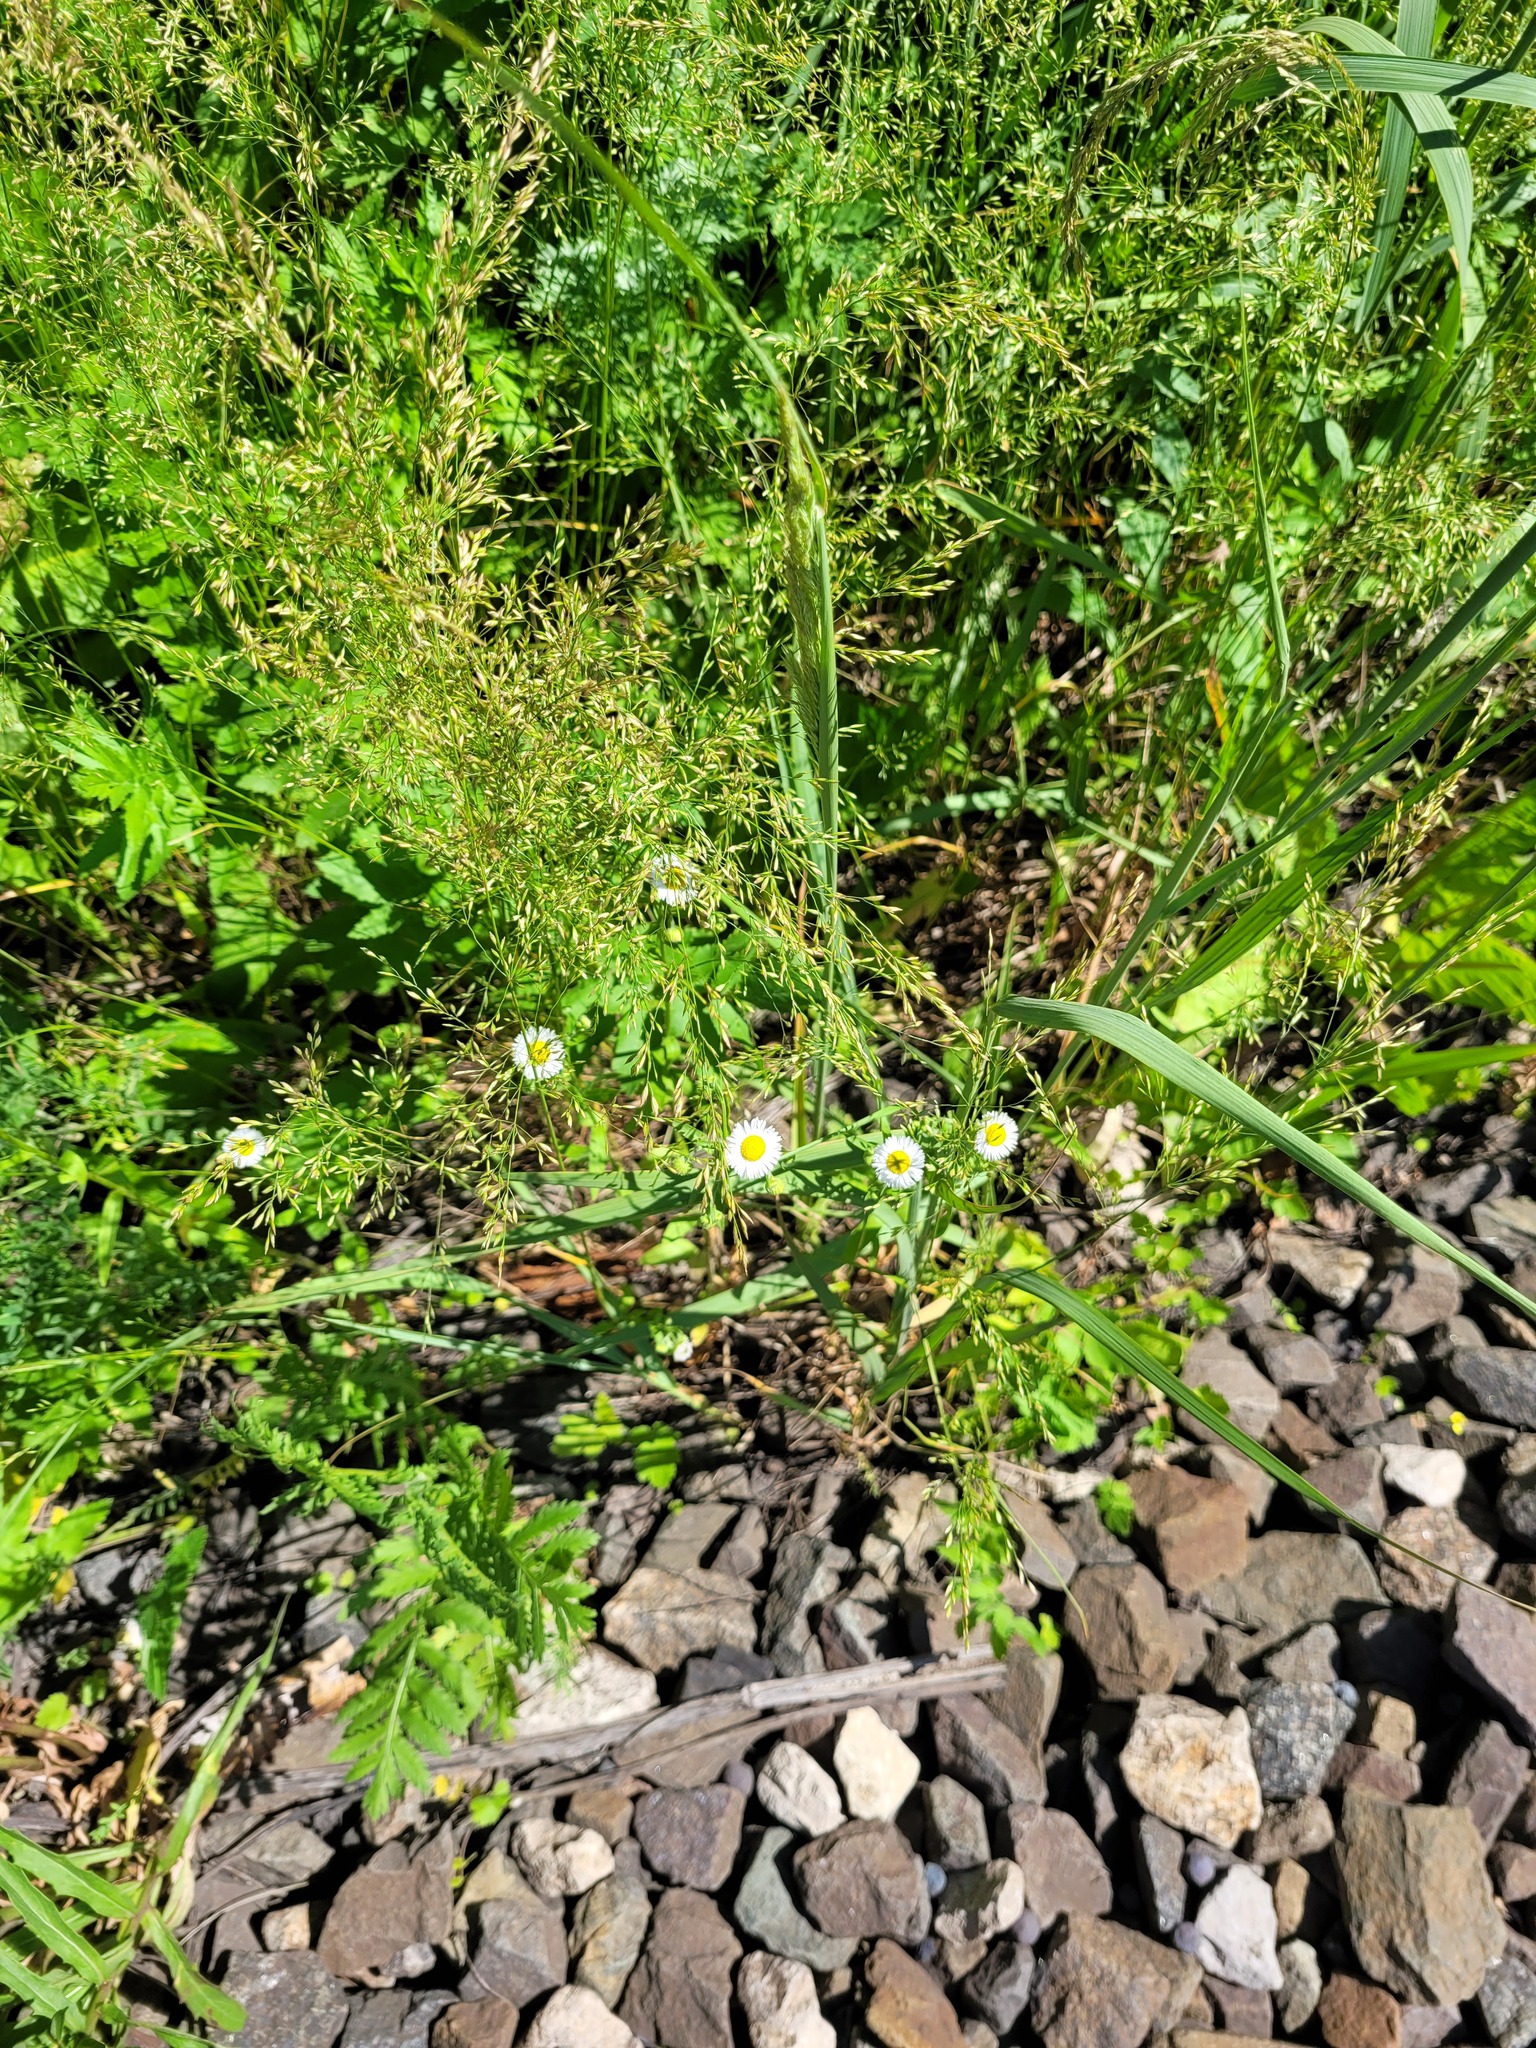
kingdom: Plantae
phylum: Tracheophyta
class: Magnoliopsida
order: Asterales
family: Asteraceae
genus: Erigeron
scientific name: Erigeron annuus
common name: Tall fleabane
